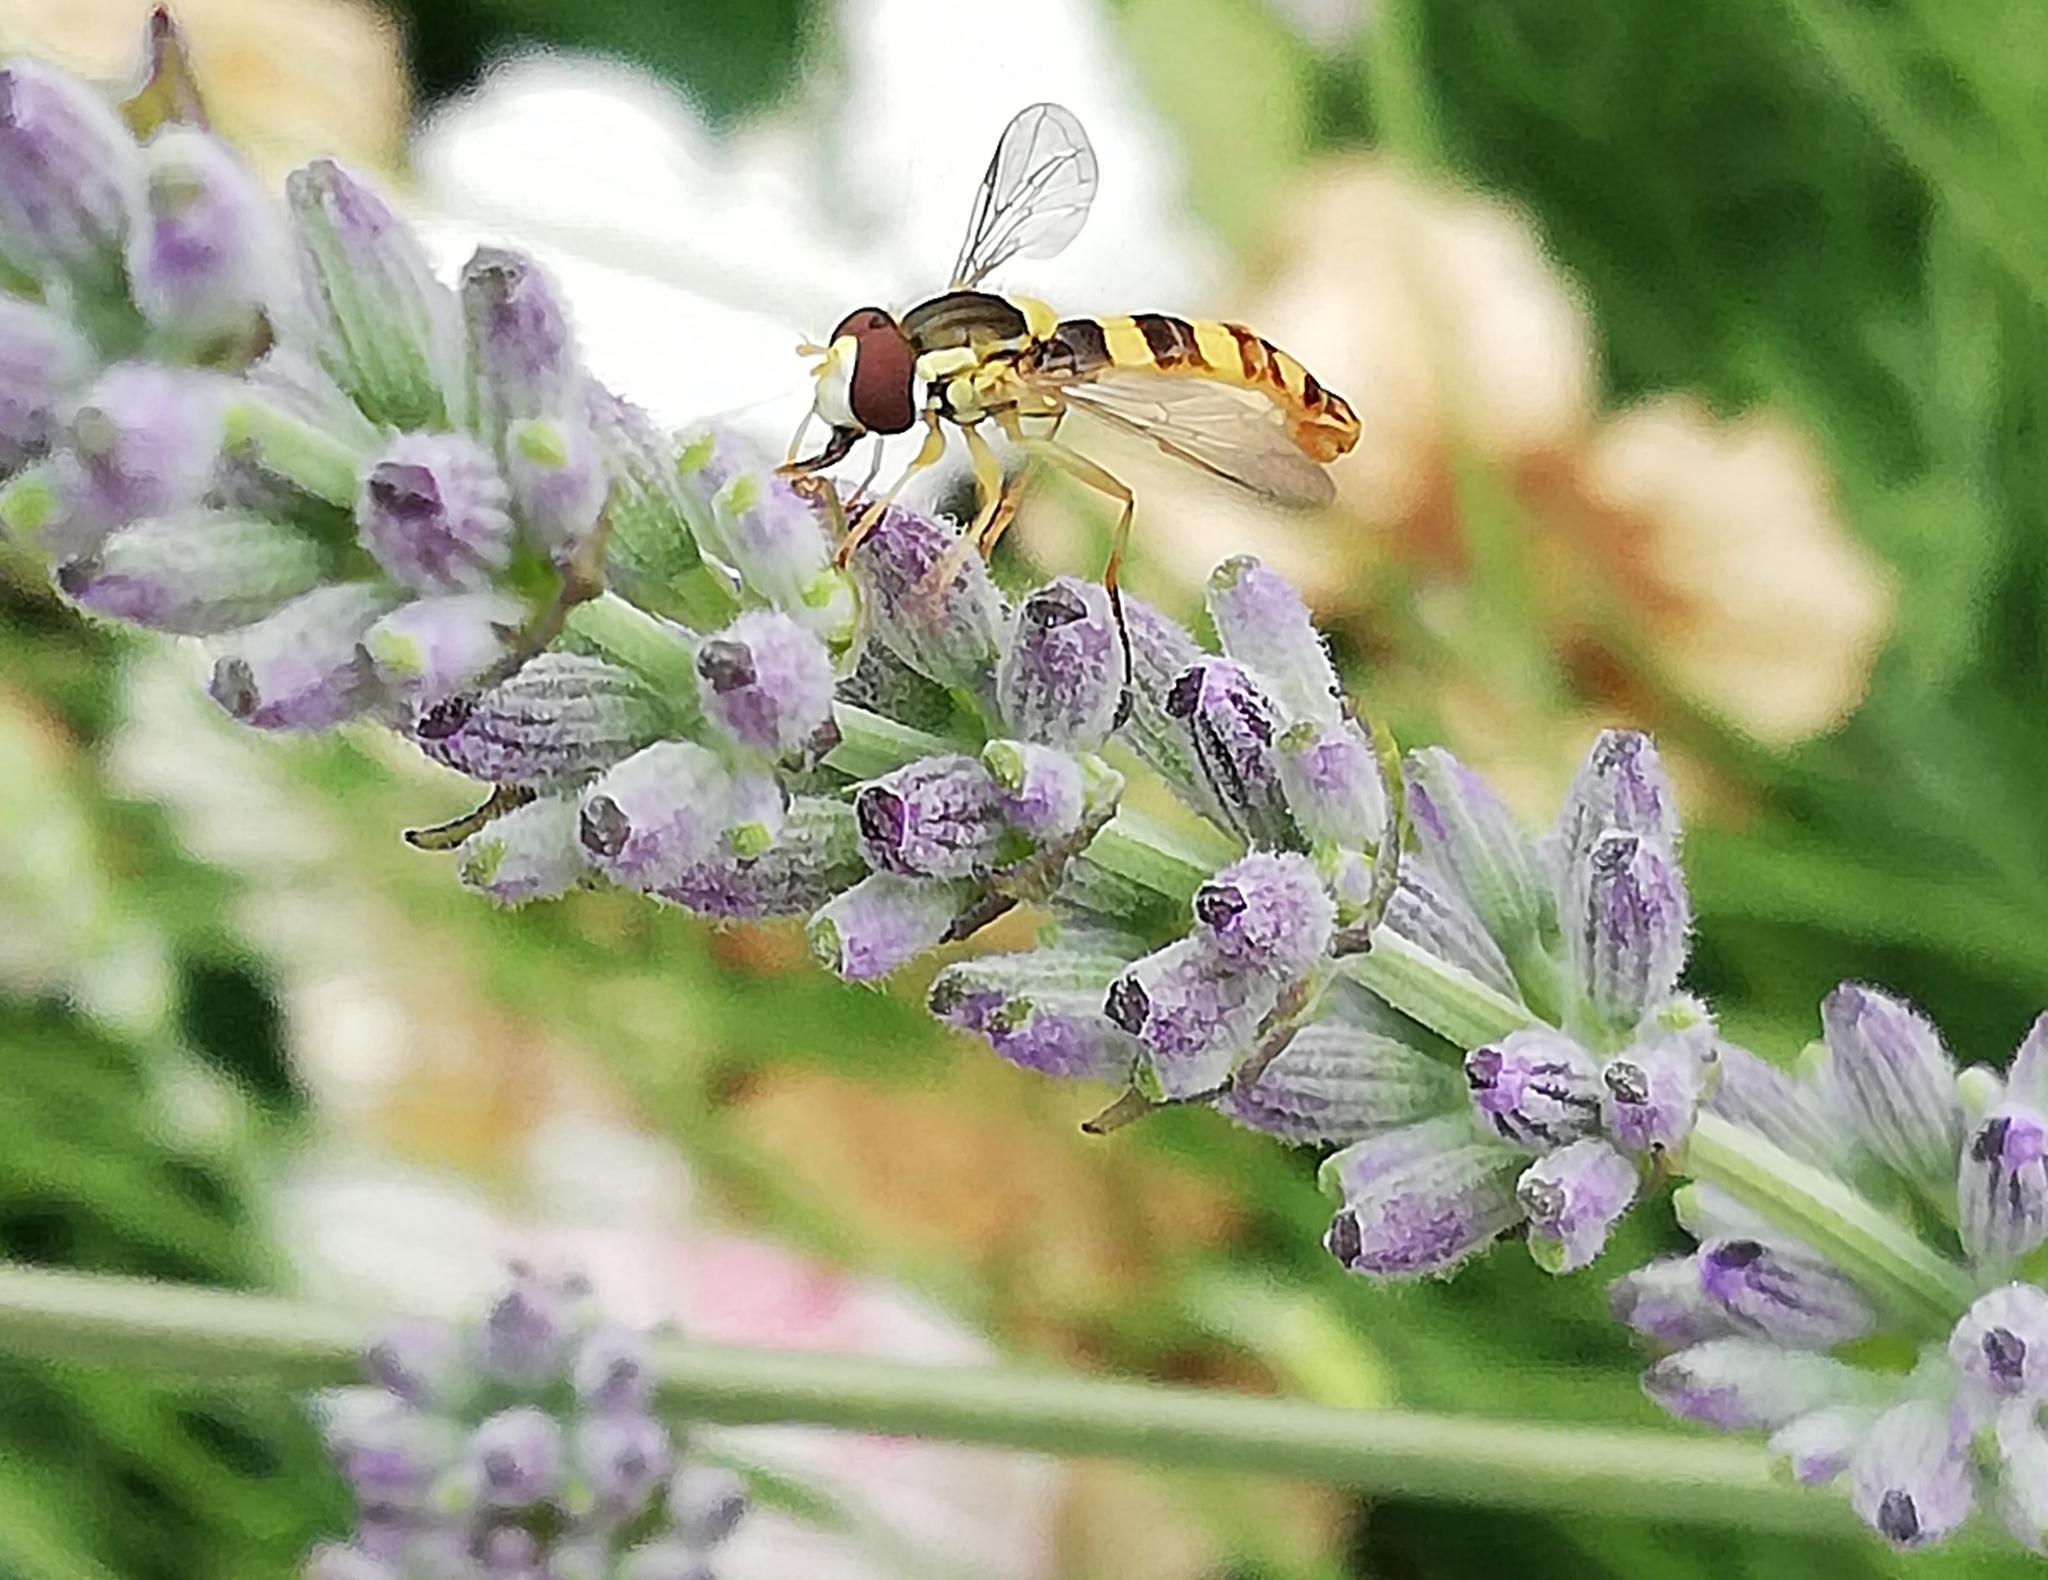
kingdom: Animalia
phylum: Arthropoda
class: Insecta
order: Diptera
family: Syrphidae
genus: Sphaerophoria
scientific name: Sphaerophoria scripta
